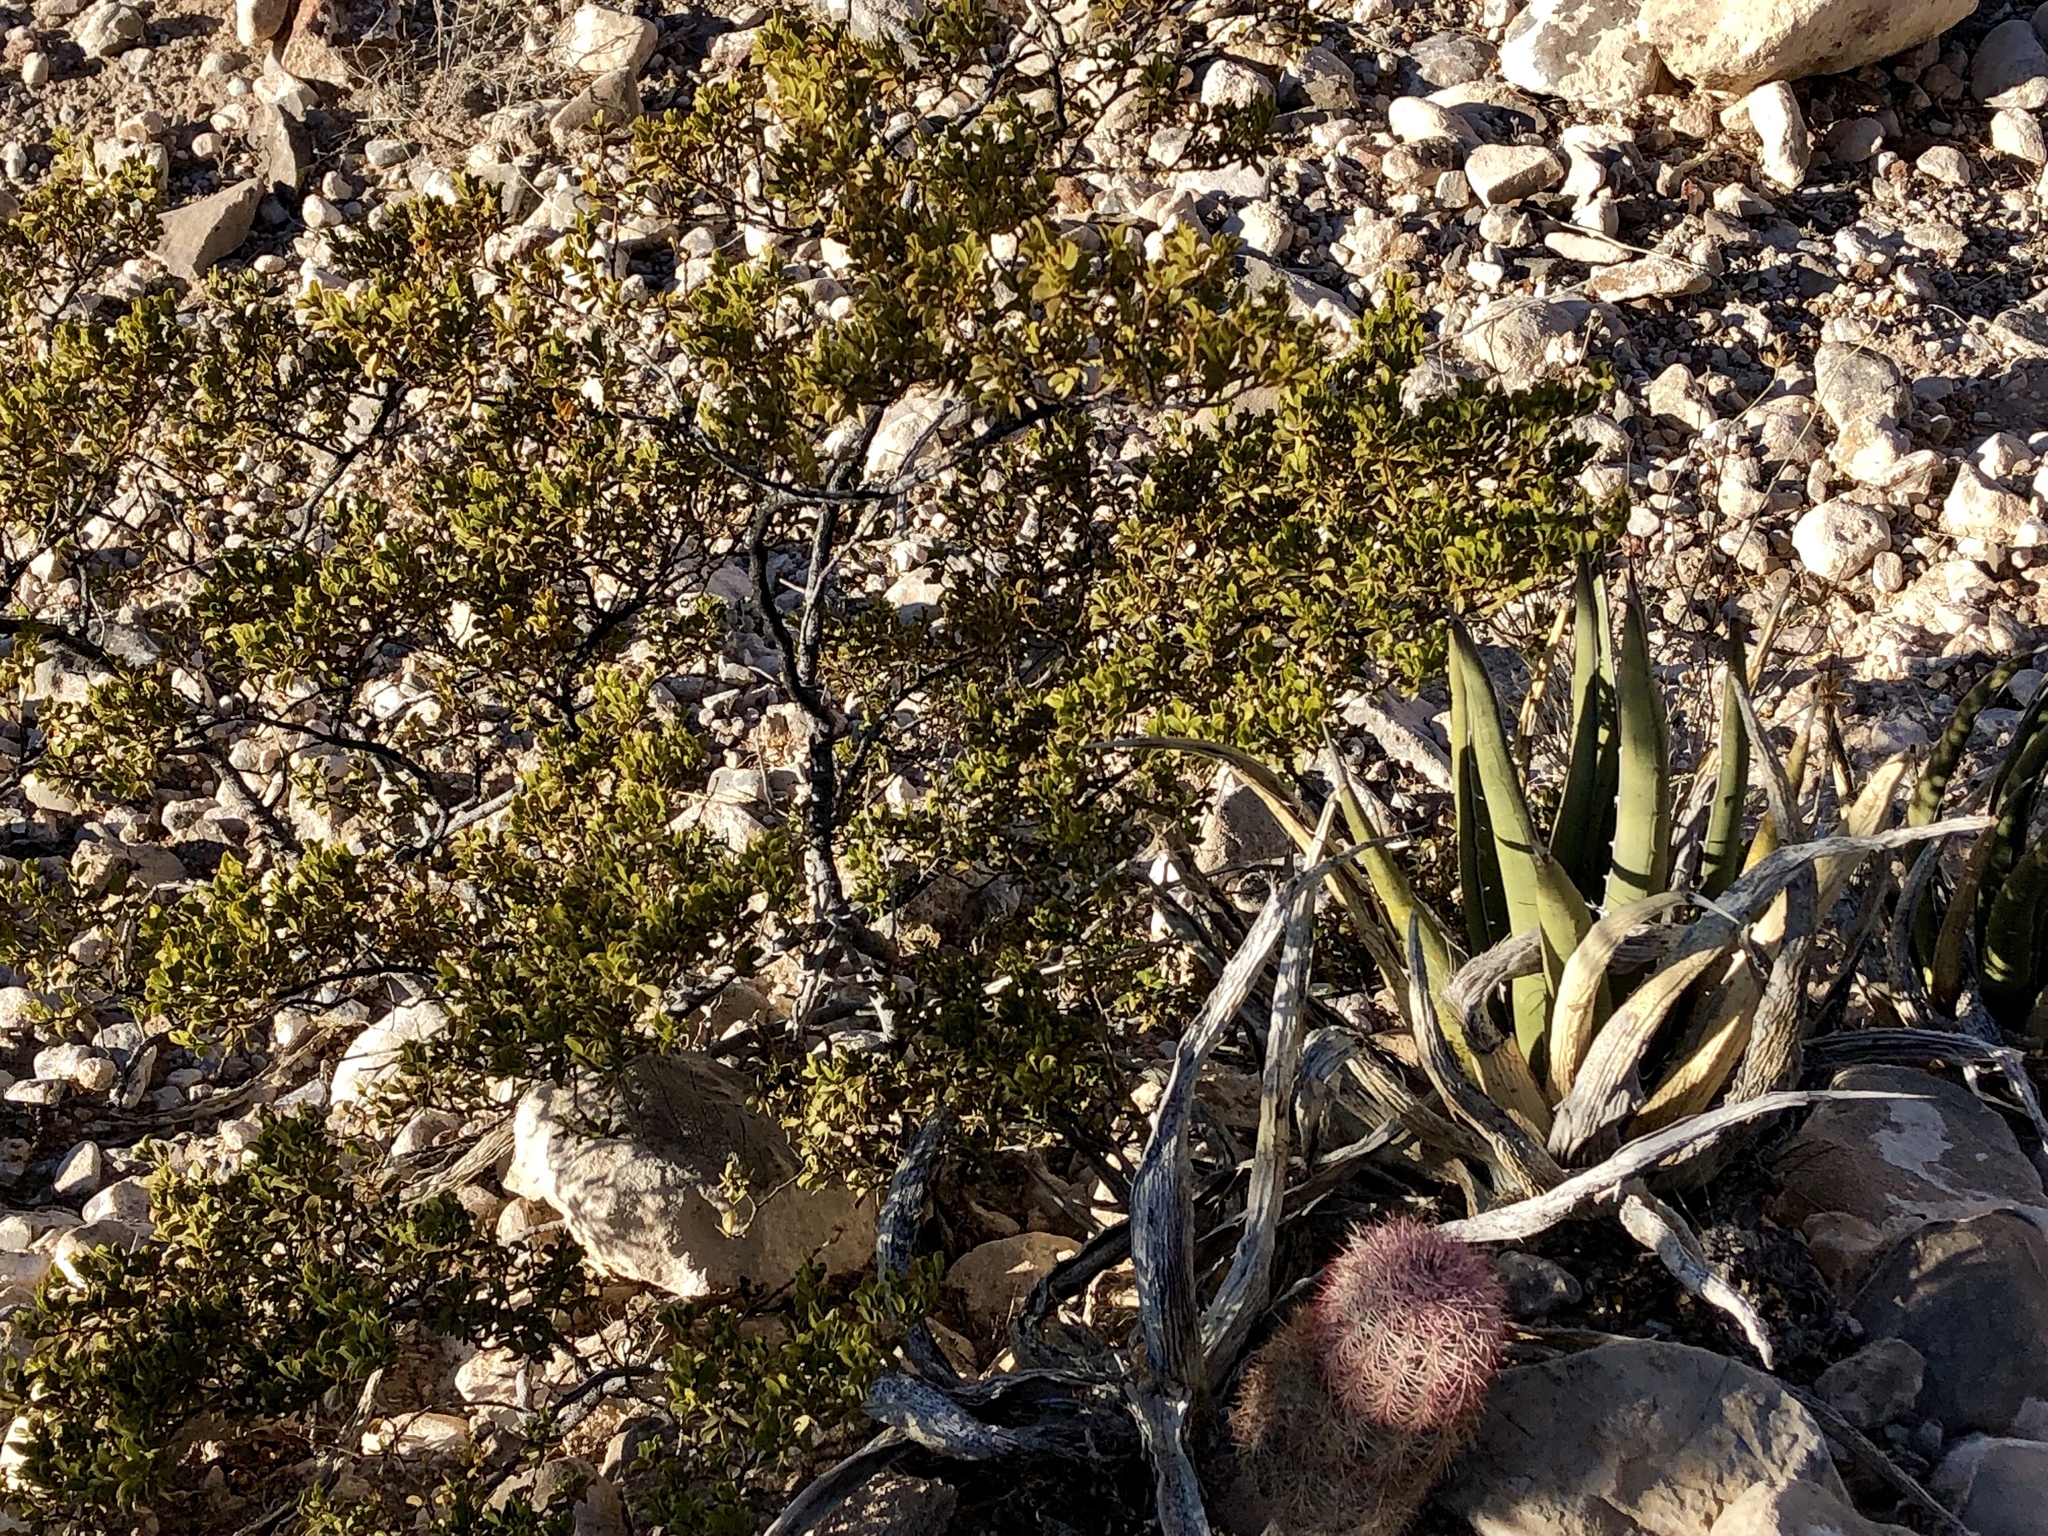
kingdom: Plantae
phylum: Tracheophyta
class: Magnoliopsida
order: Zygophyllales
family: Zygophyllaceae
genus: Larrea
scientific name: Larrea tridentata
